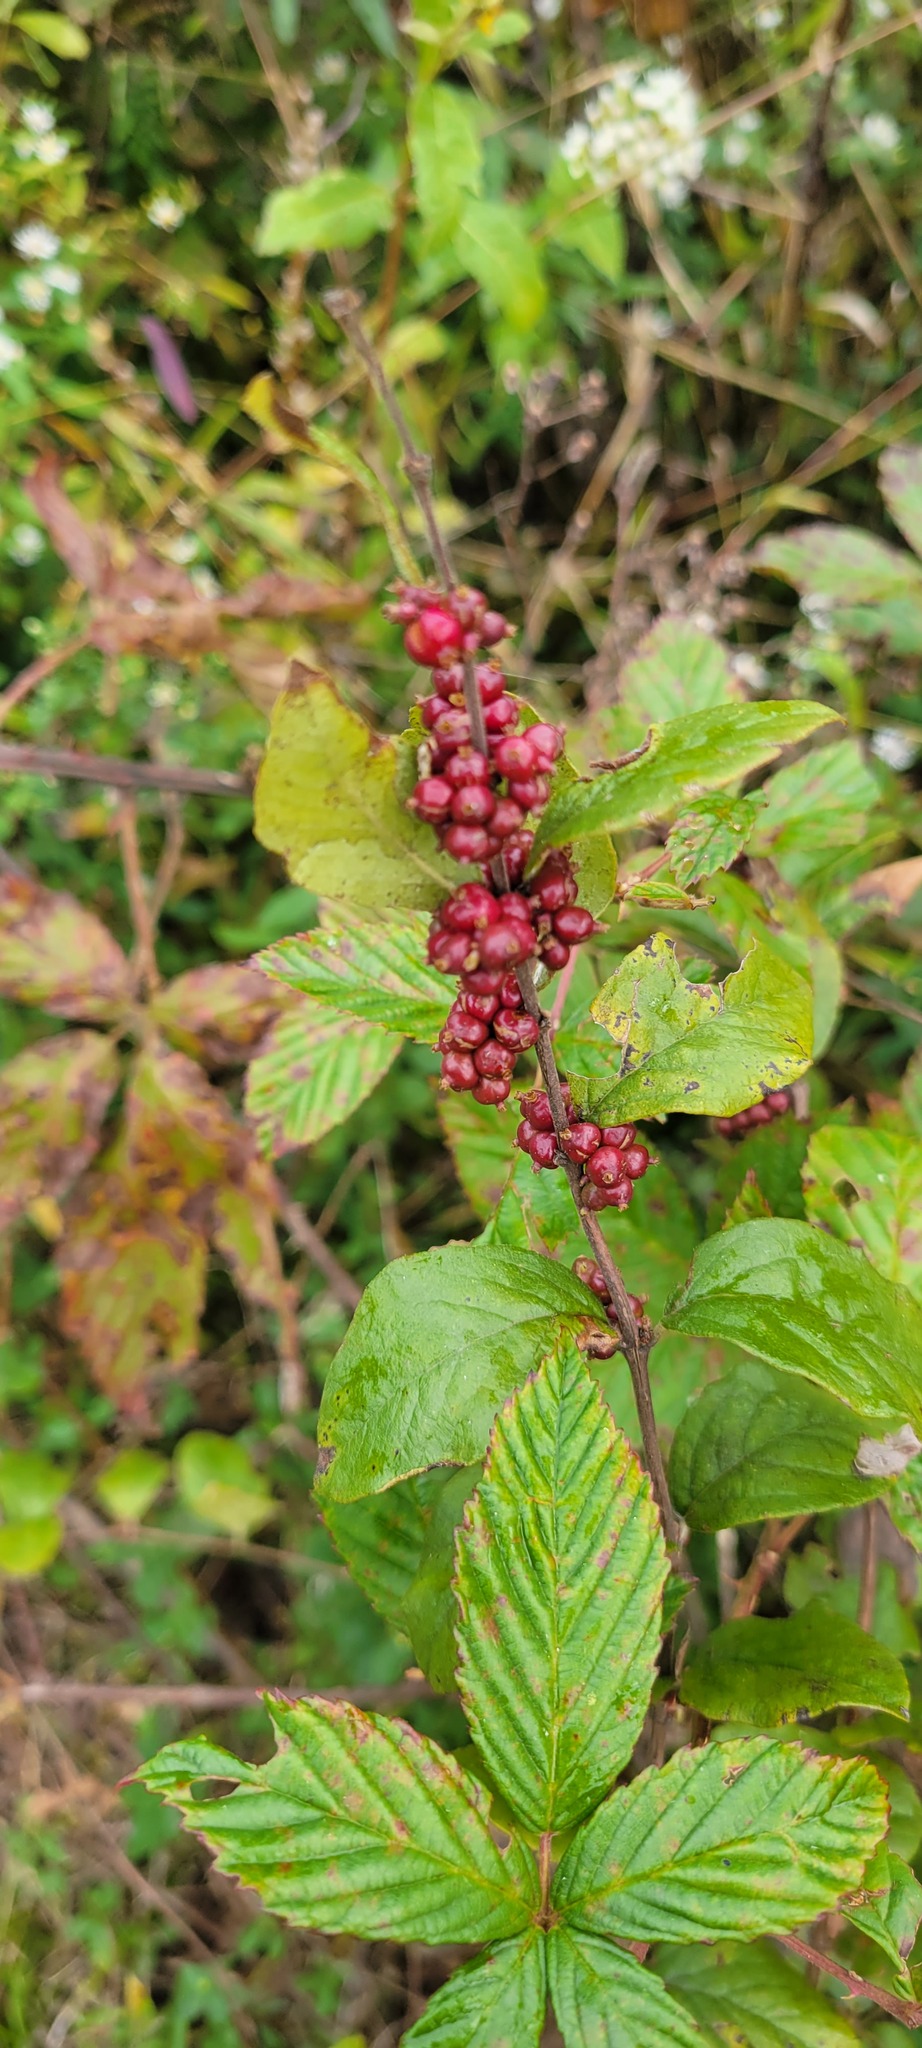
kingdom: Plantae
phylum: Tracheophyta
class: Magnoliopsida
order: Dipsacales
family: Caprifoliaceae
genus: Symphoricarpos
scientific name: Symphoricarpos orbiculatus
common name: Coralberry
